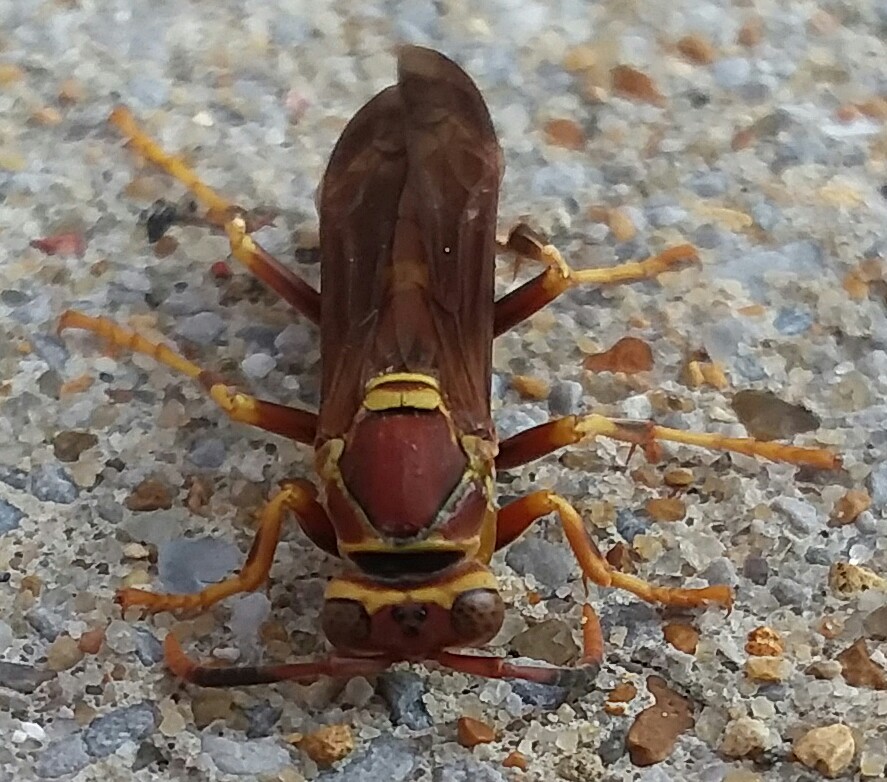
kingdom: Animalia
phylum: Arthropoda
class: Insecta
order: Hymenoptera
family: Eumenidae
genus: Polistes
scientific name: Polistes exclamans
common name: Paper wasp
